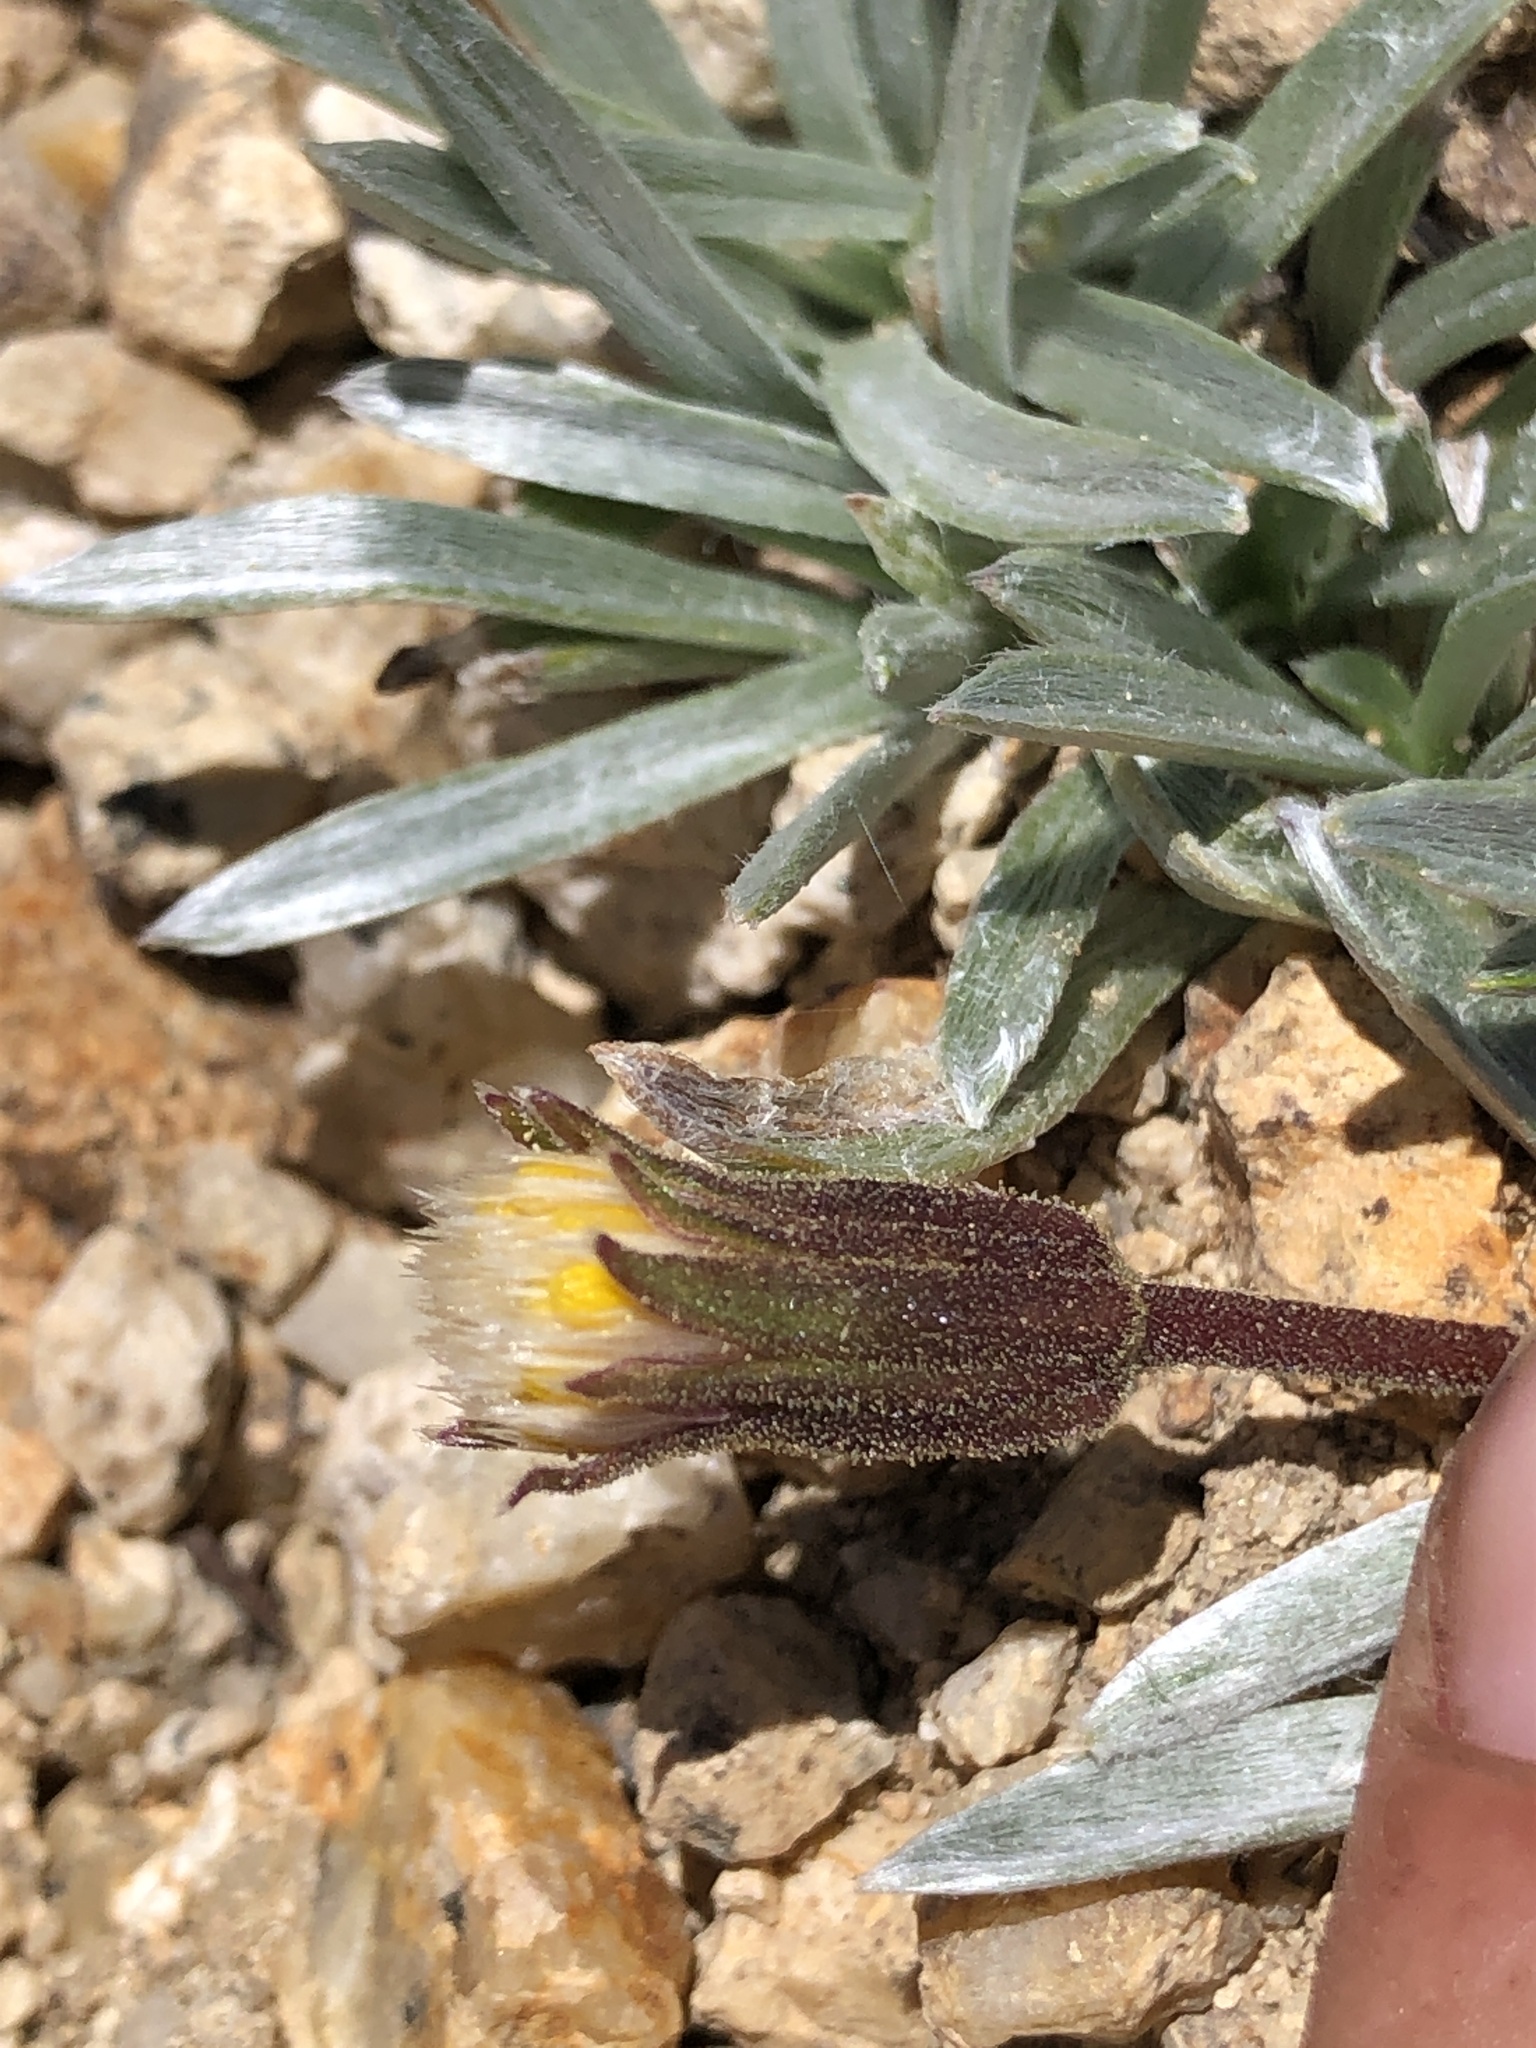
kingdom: Plantae
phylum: Tracheophyta
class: Magnoliopsida
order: Asterales
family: Asteraceae
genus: Raillardella
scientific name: Raillardella argentea
